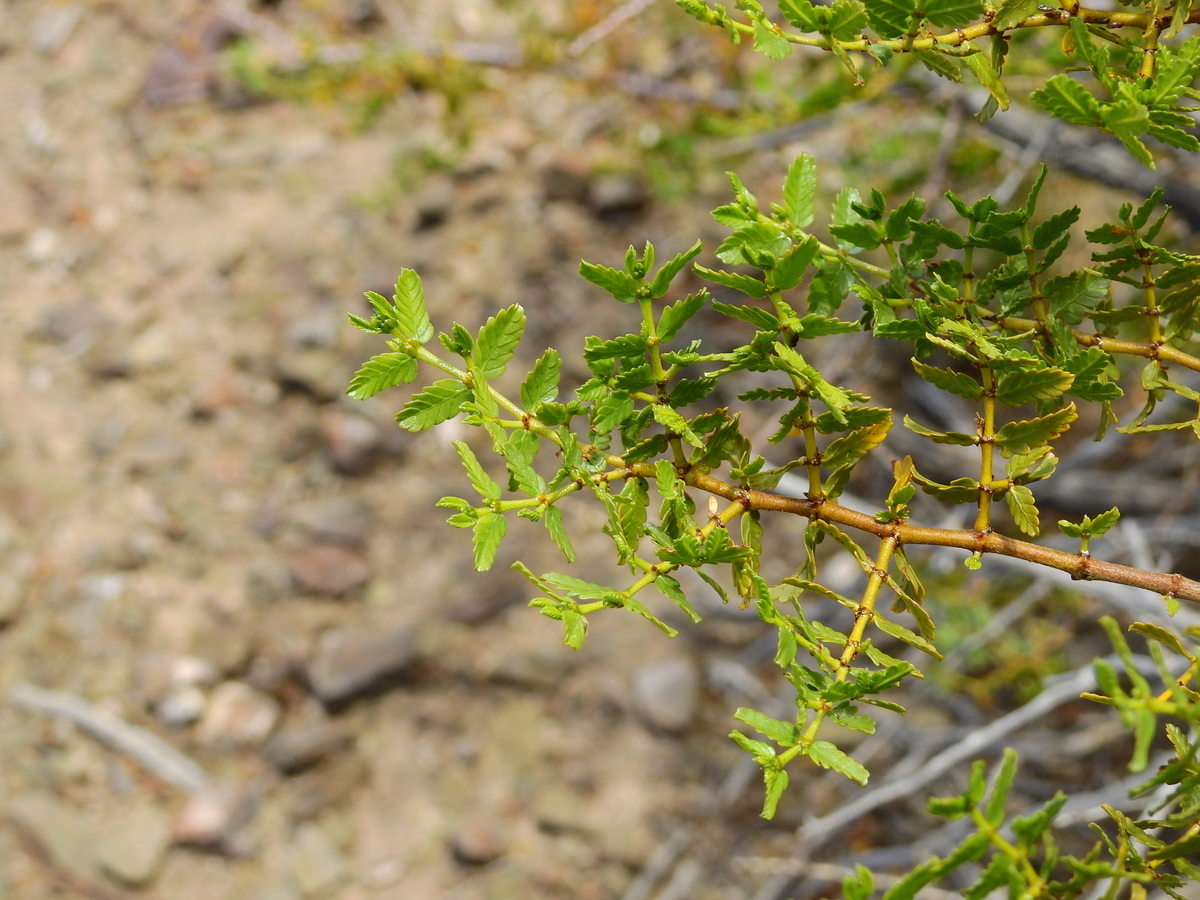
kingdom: Plantae
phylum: Tracheophyta
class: Magnoliopsida
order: Zygophyllales
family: Zygophyllaceae
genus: Larrea
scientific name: Larrea nitida
